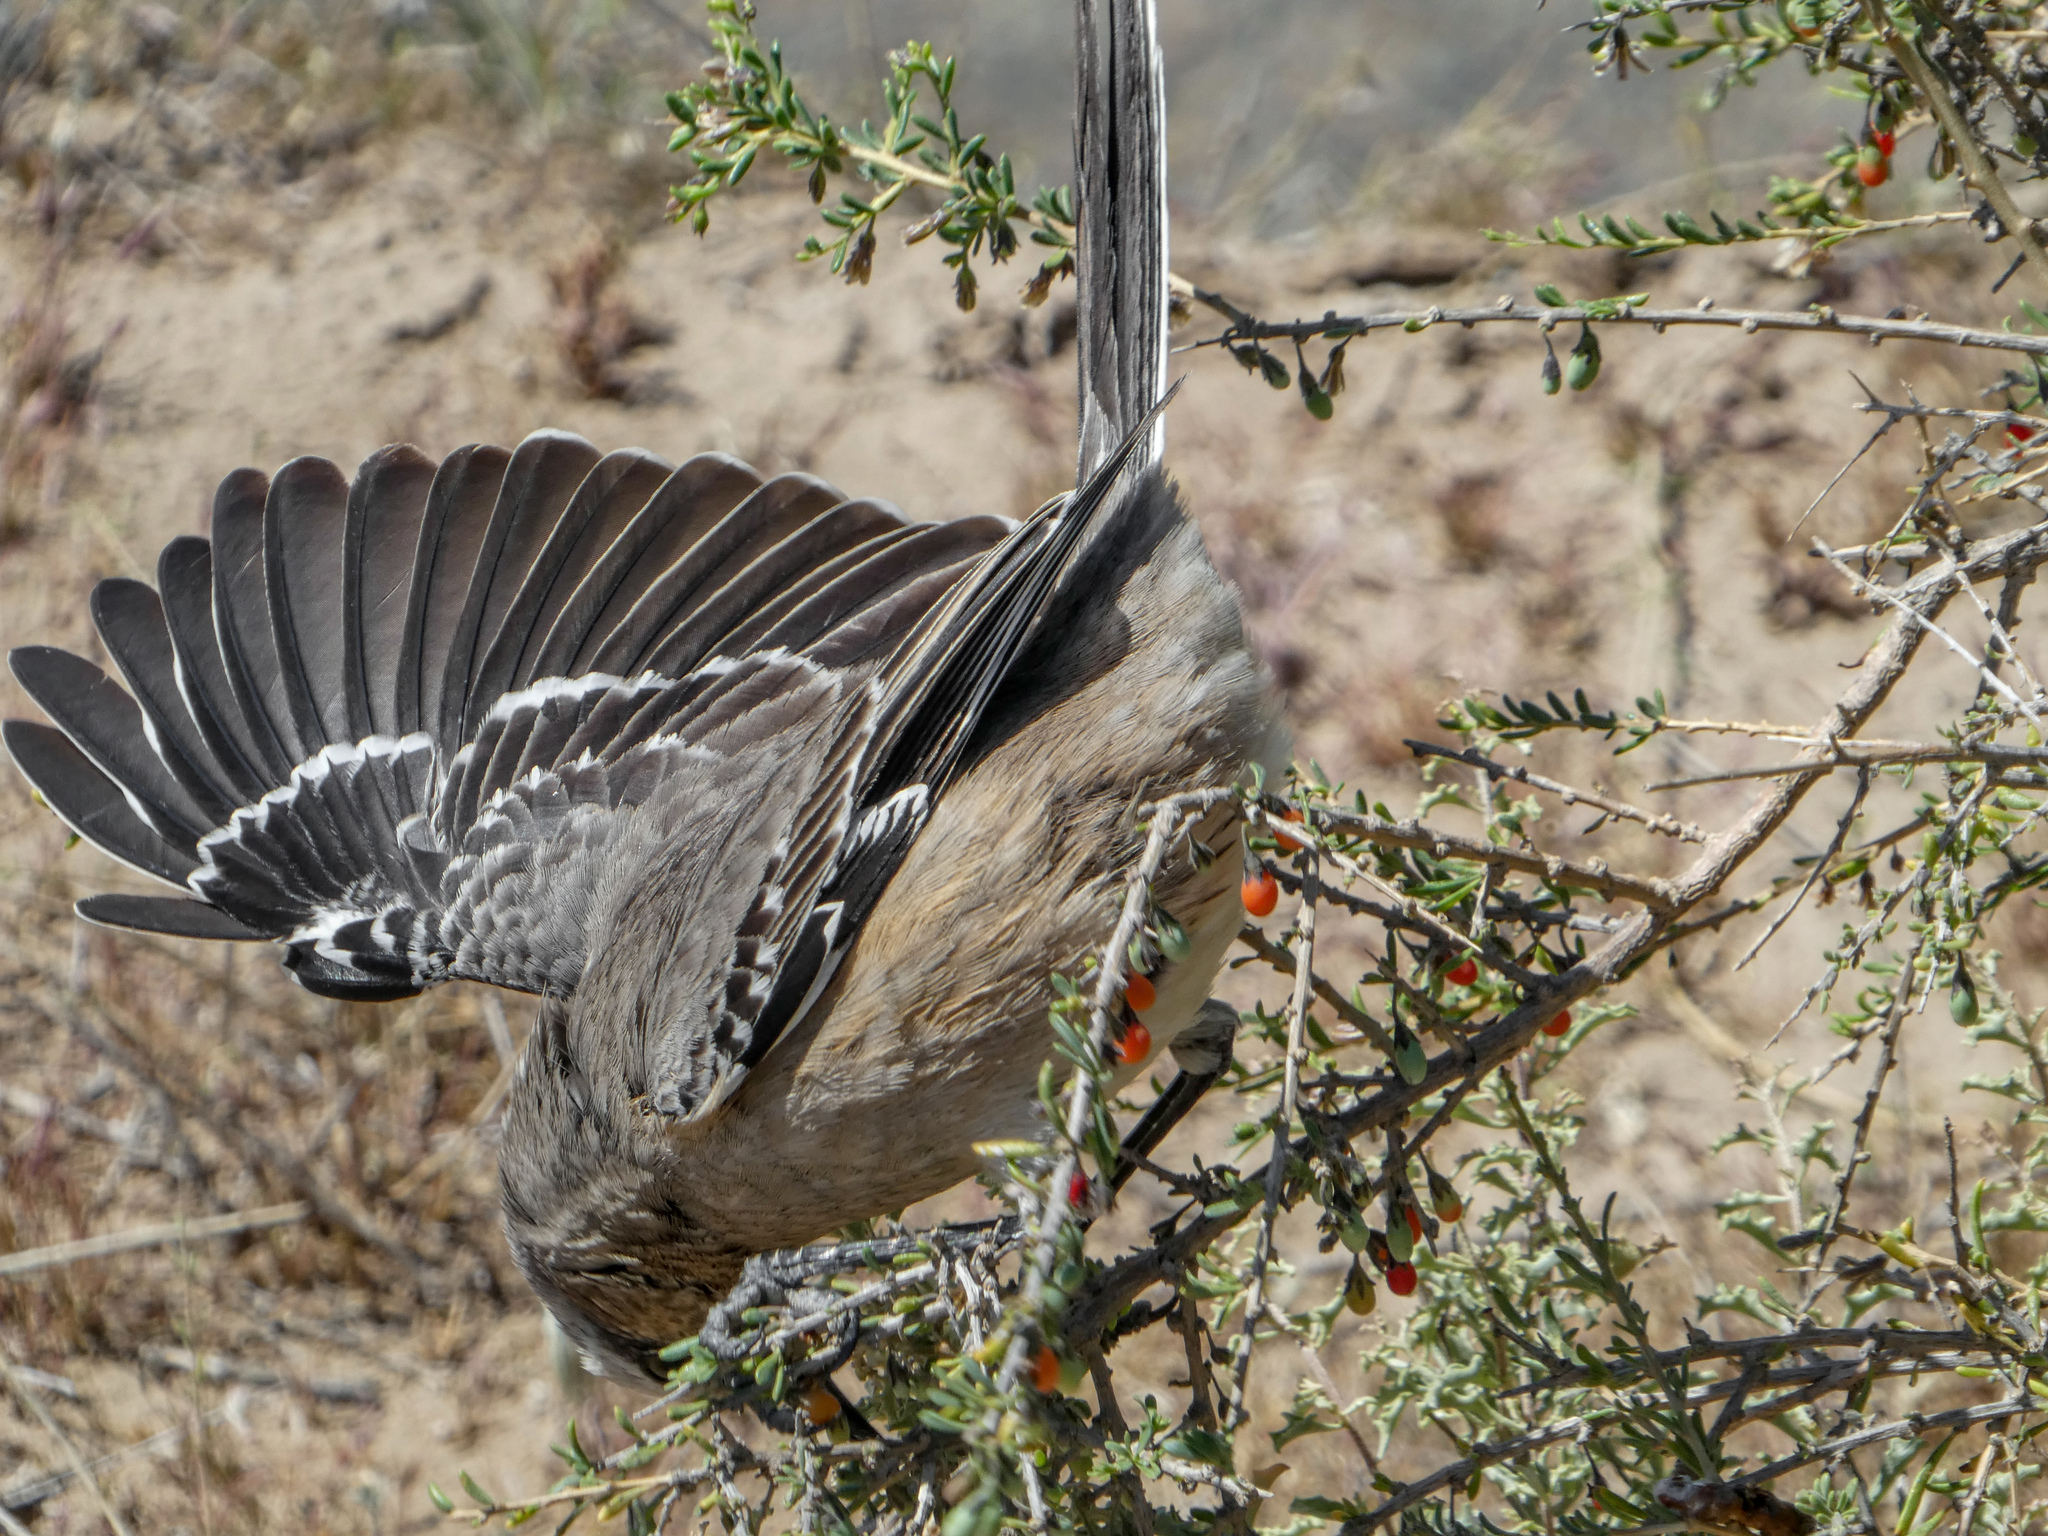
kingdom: Animalia
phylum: Chordata
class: Aves
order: Passeriformes
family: Mimidae
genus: Mimus
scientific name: Mimus patagonicus
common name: Patagonian mockingbird
